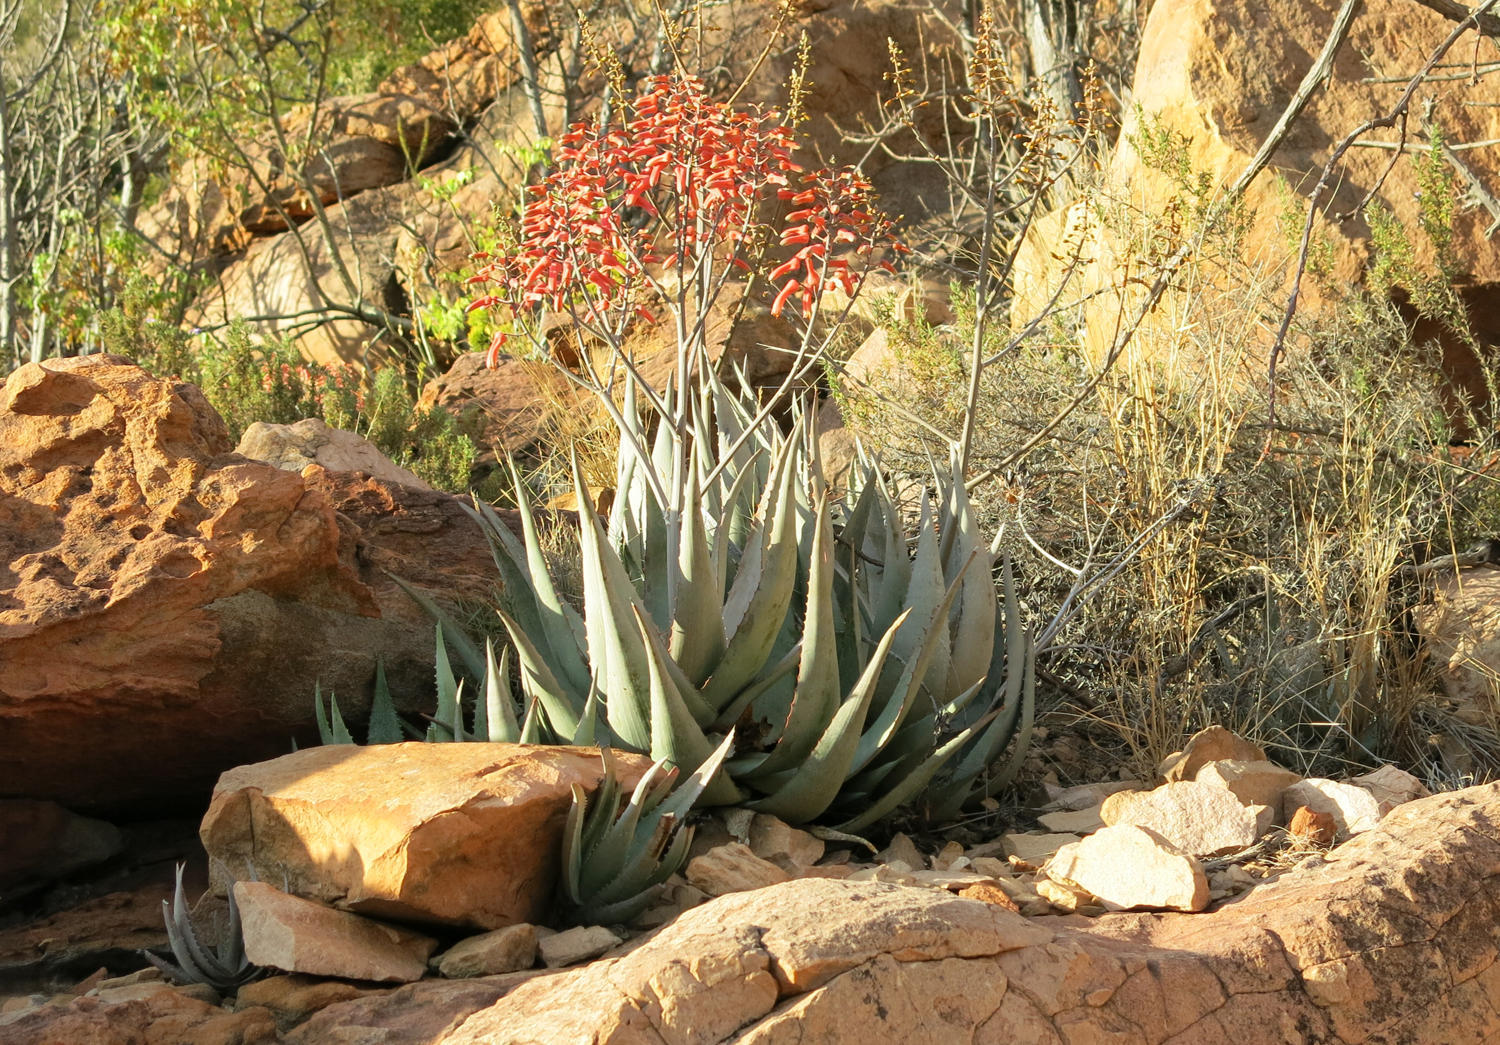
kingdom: Plantae
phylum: Tracheophyta
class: Liliopsida
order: Asparagales
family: Asphodelaceae
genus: Aloe
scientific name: Aloe chabaudii
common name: Chabaud's aloe
